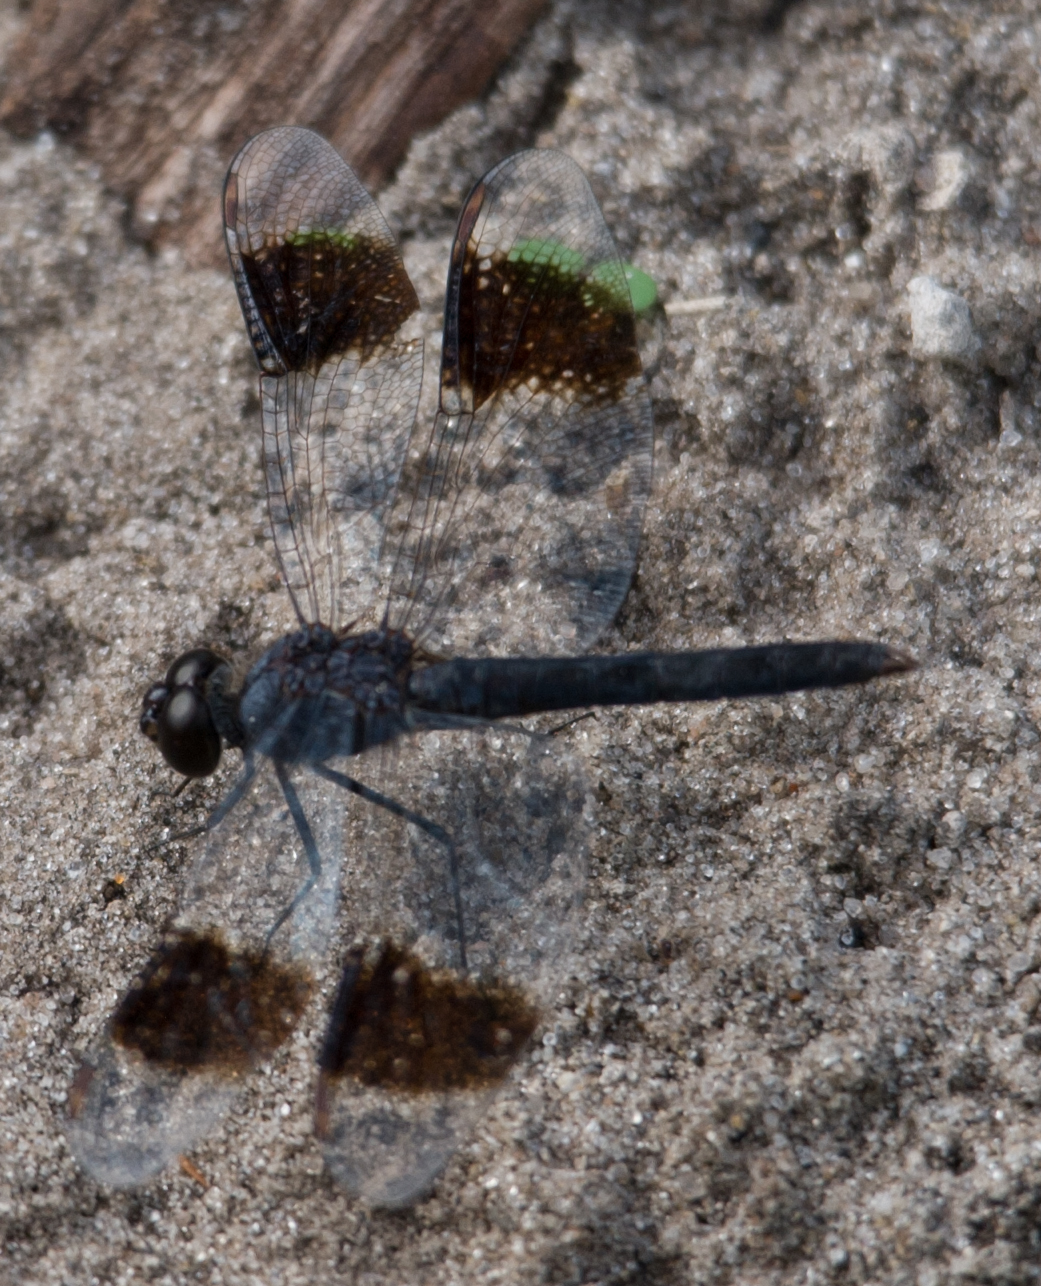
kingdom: Animalia
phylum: Arthropoda
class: Insecta
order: Odonata
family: Libellulidae
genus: Brachythemis
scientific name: Brachythemis leucosticta
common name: Banded groundling
